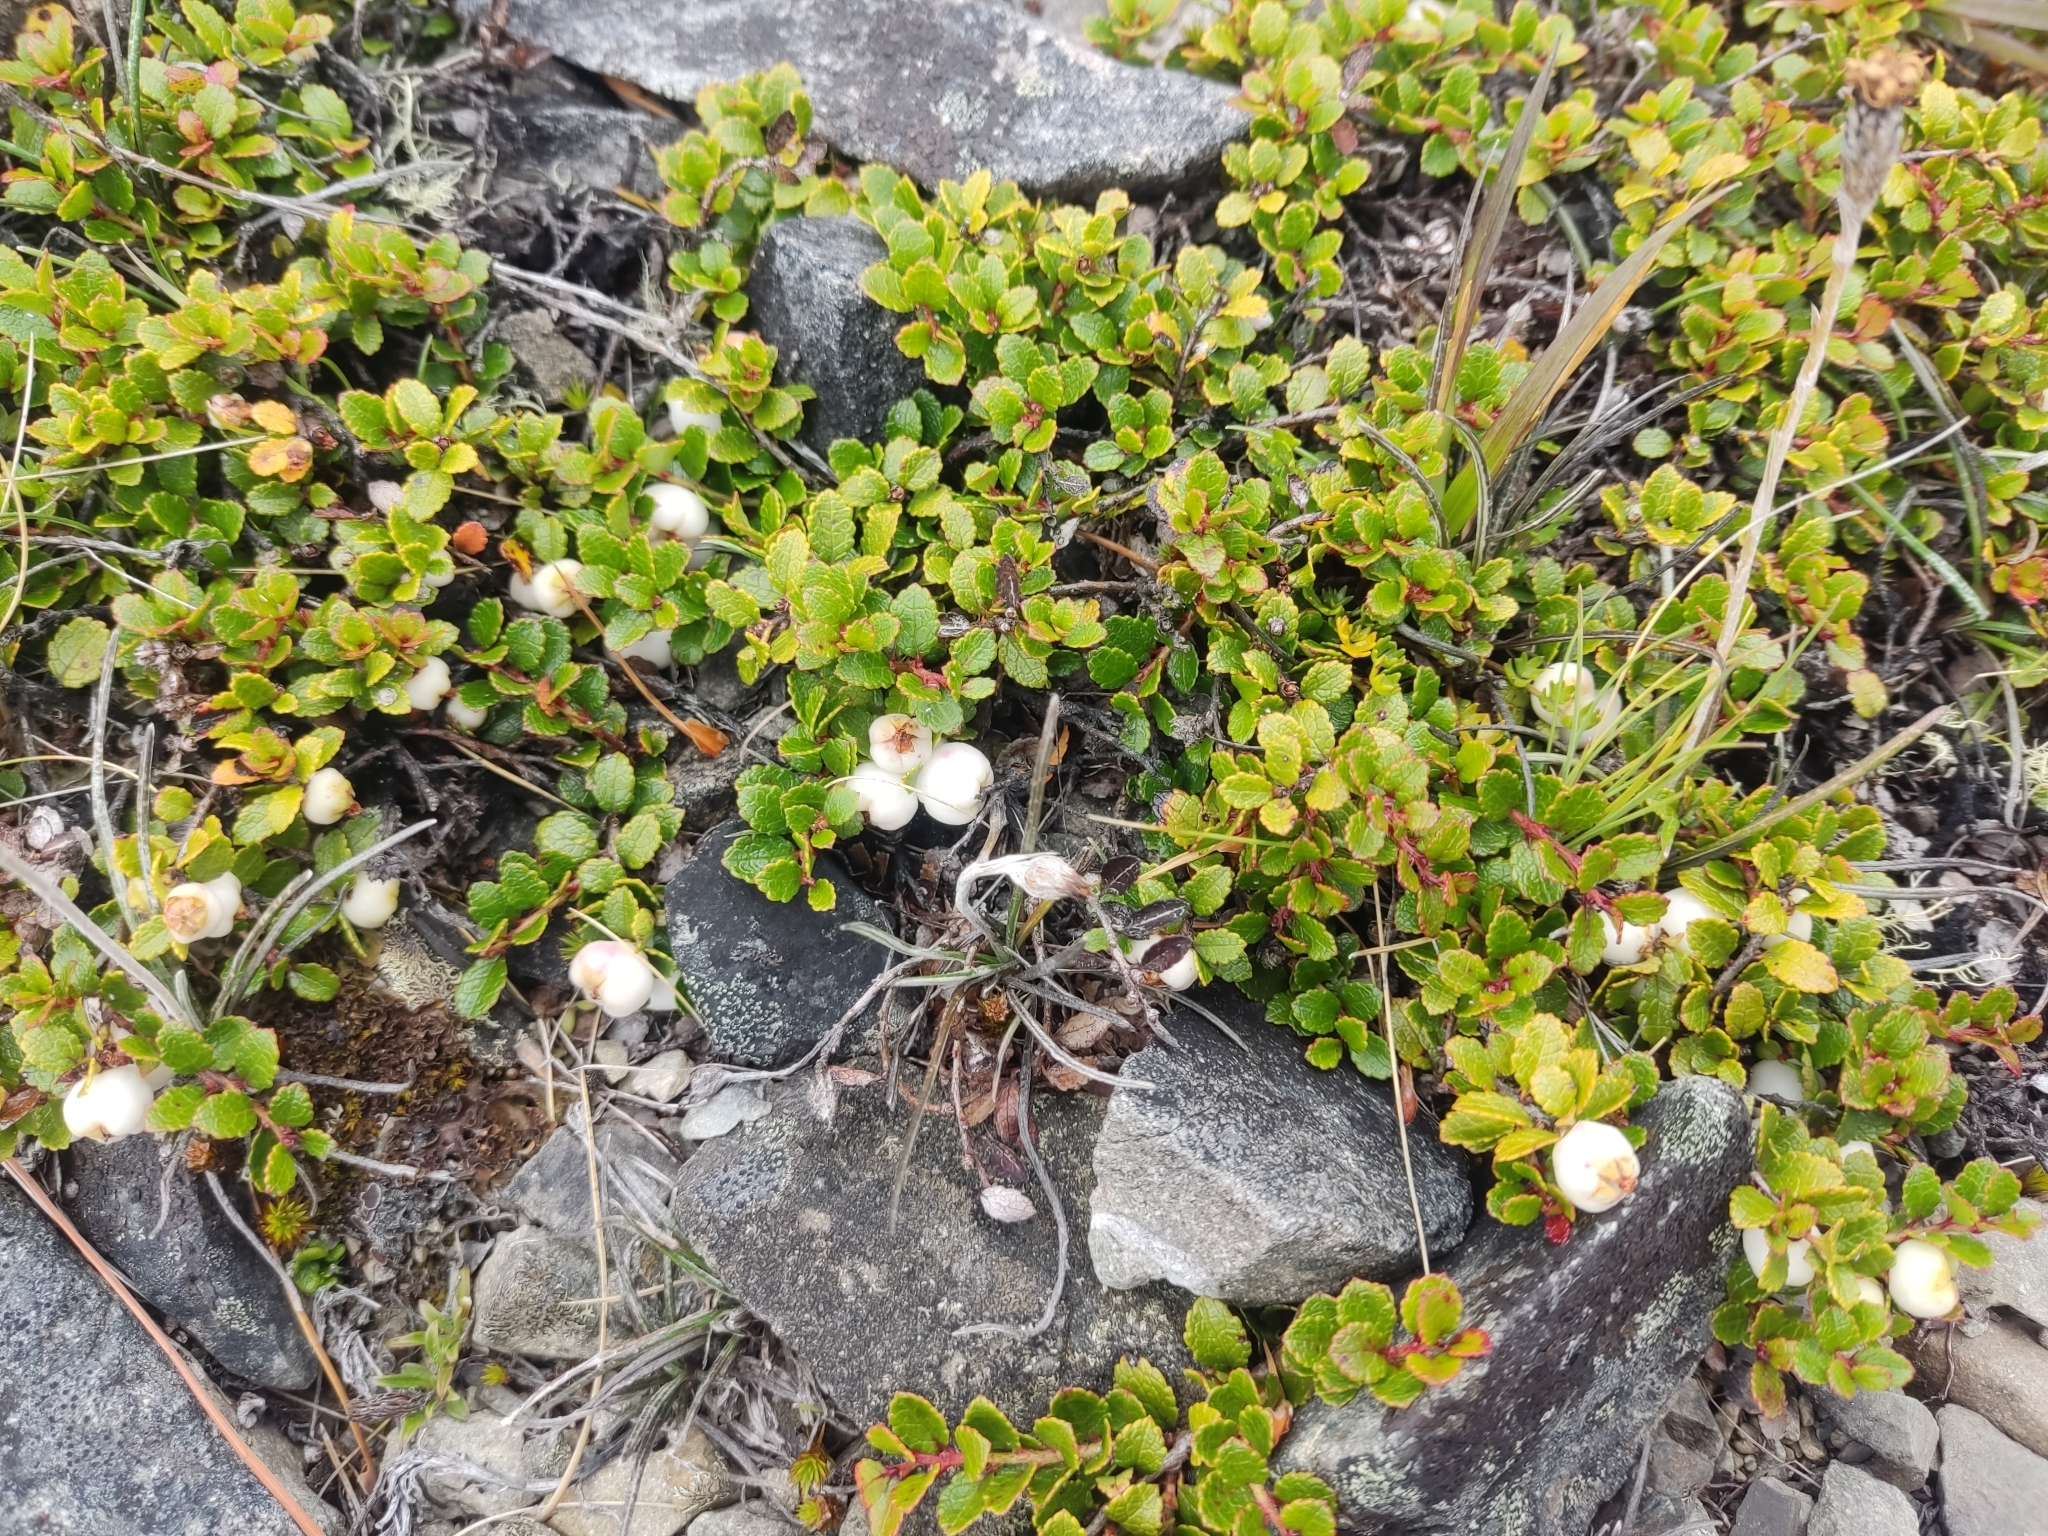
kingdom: Plantae
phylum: Tracheophyta
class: Magnoliopsida
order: Ericales
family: Ericaceae
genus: Gaultheria
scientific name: Gaultheria depressa
